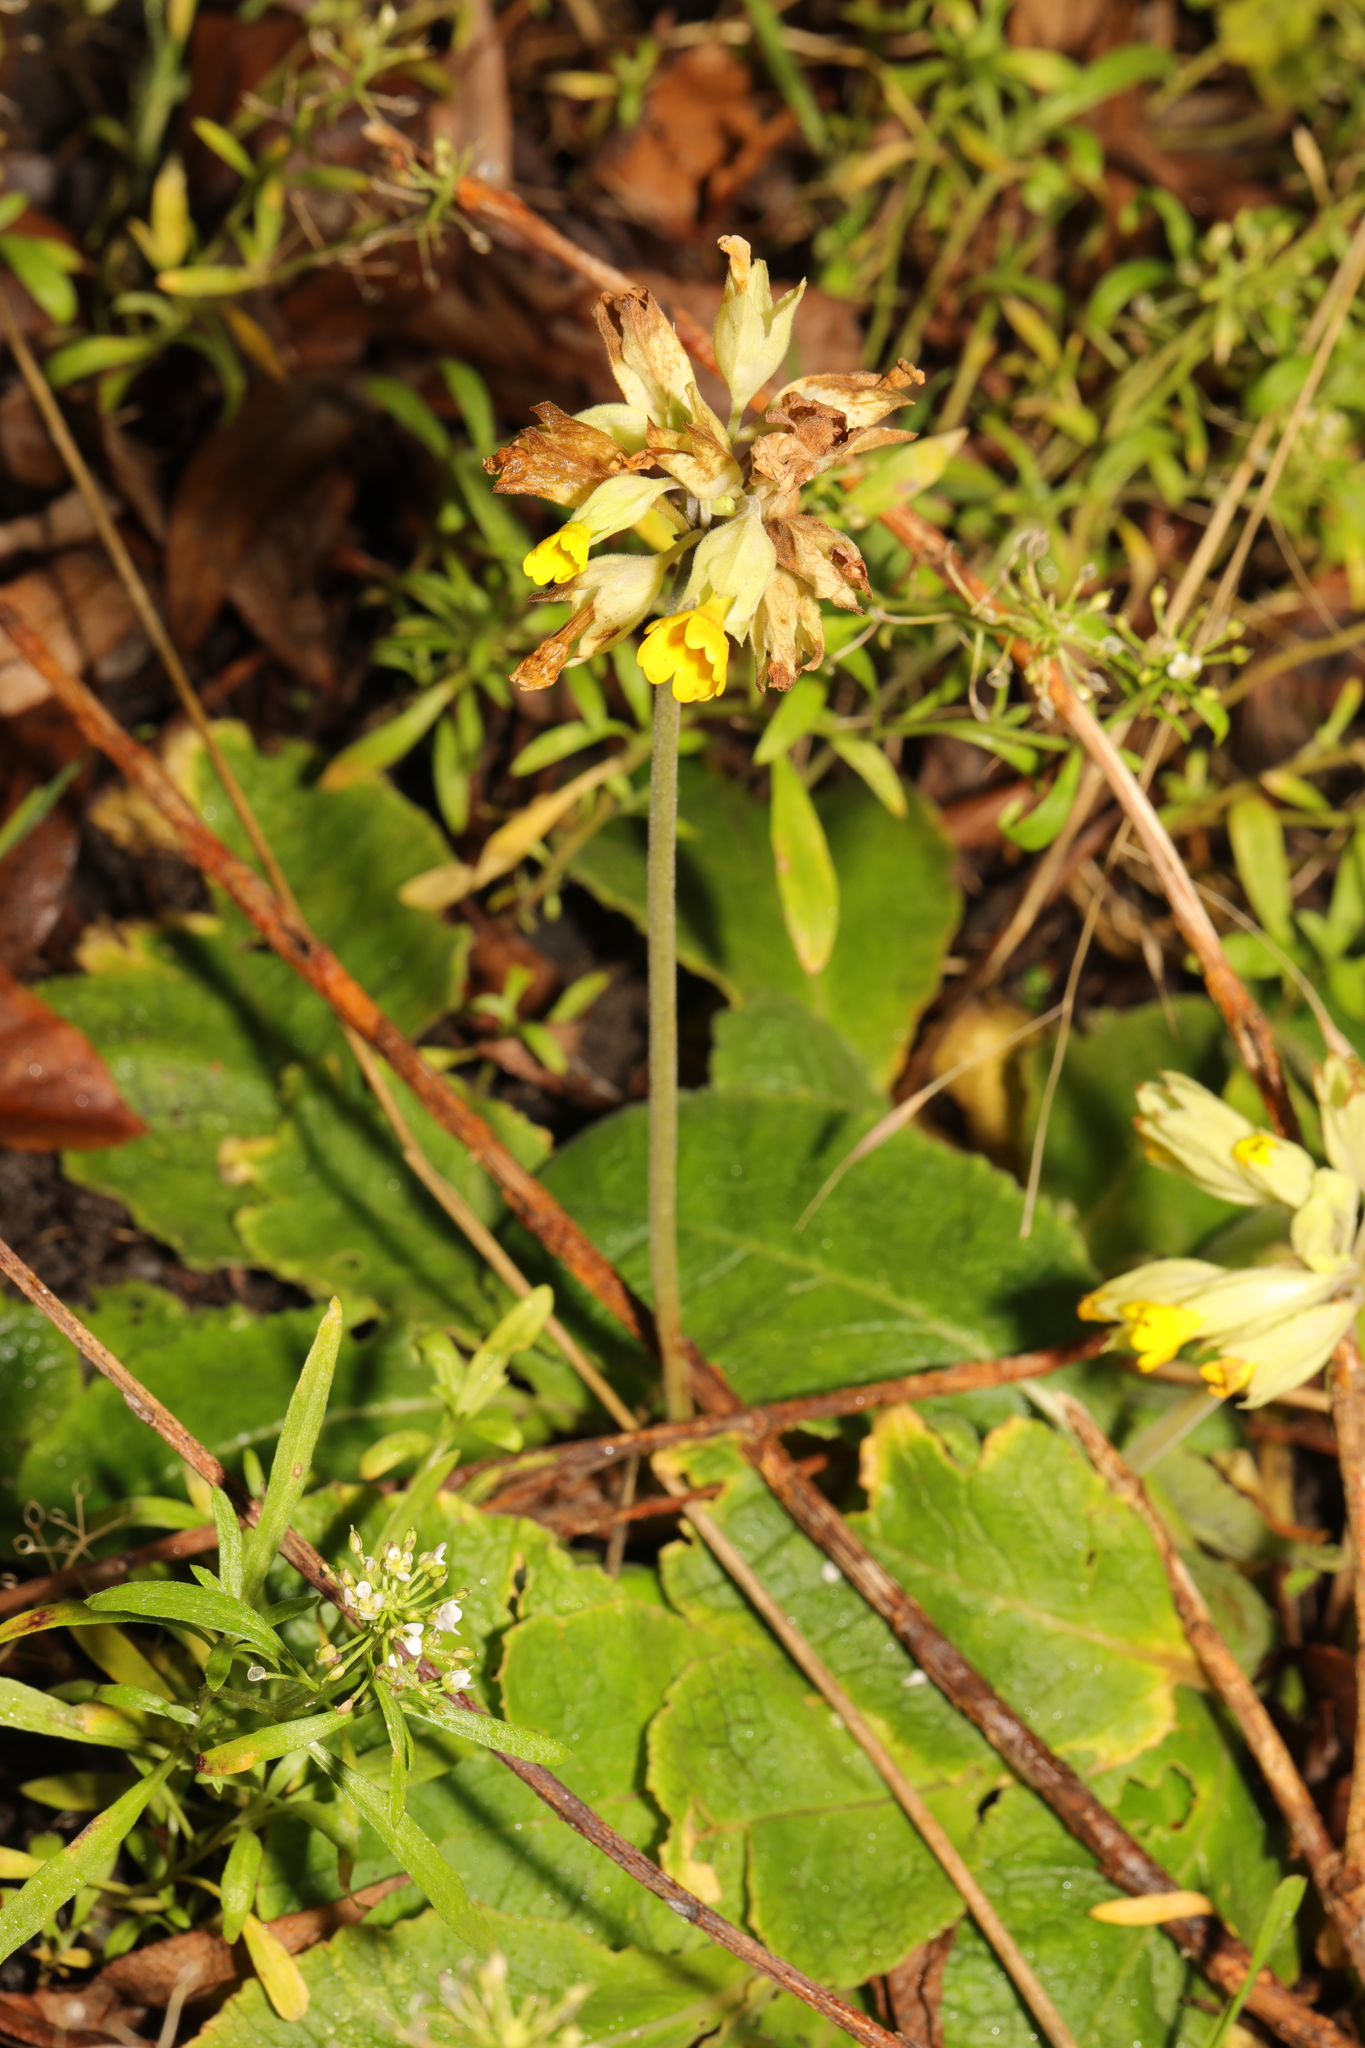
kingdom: Plantae
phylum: Tracheophyta
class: Magnoliopsida
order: Ericales
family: Primulaceae
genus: Primula
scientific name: Primula veris
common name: Cowslip
